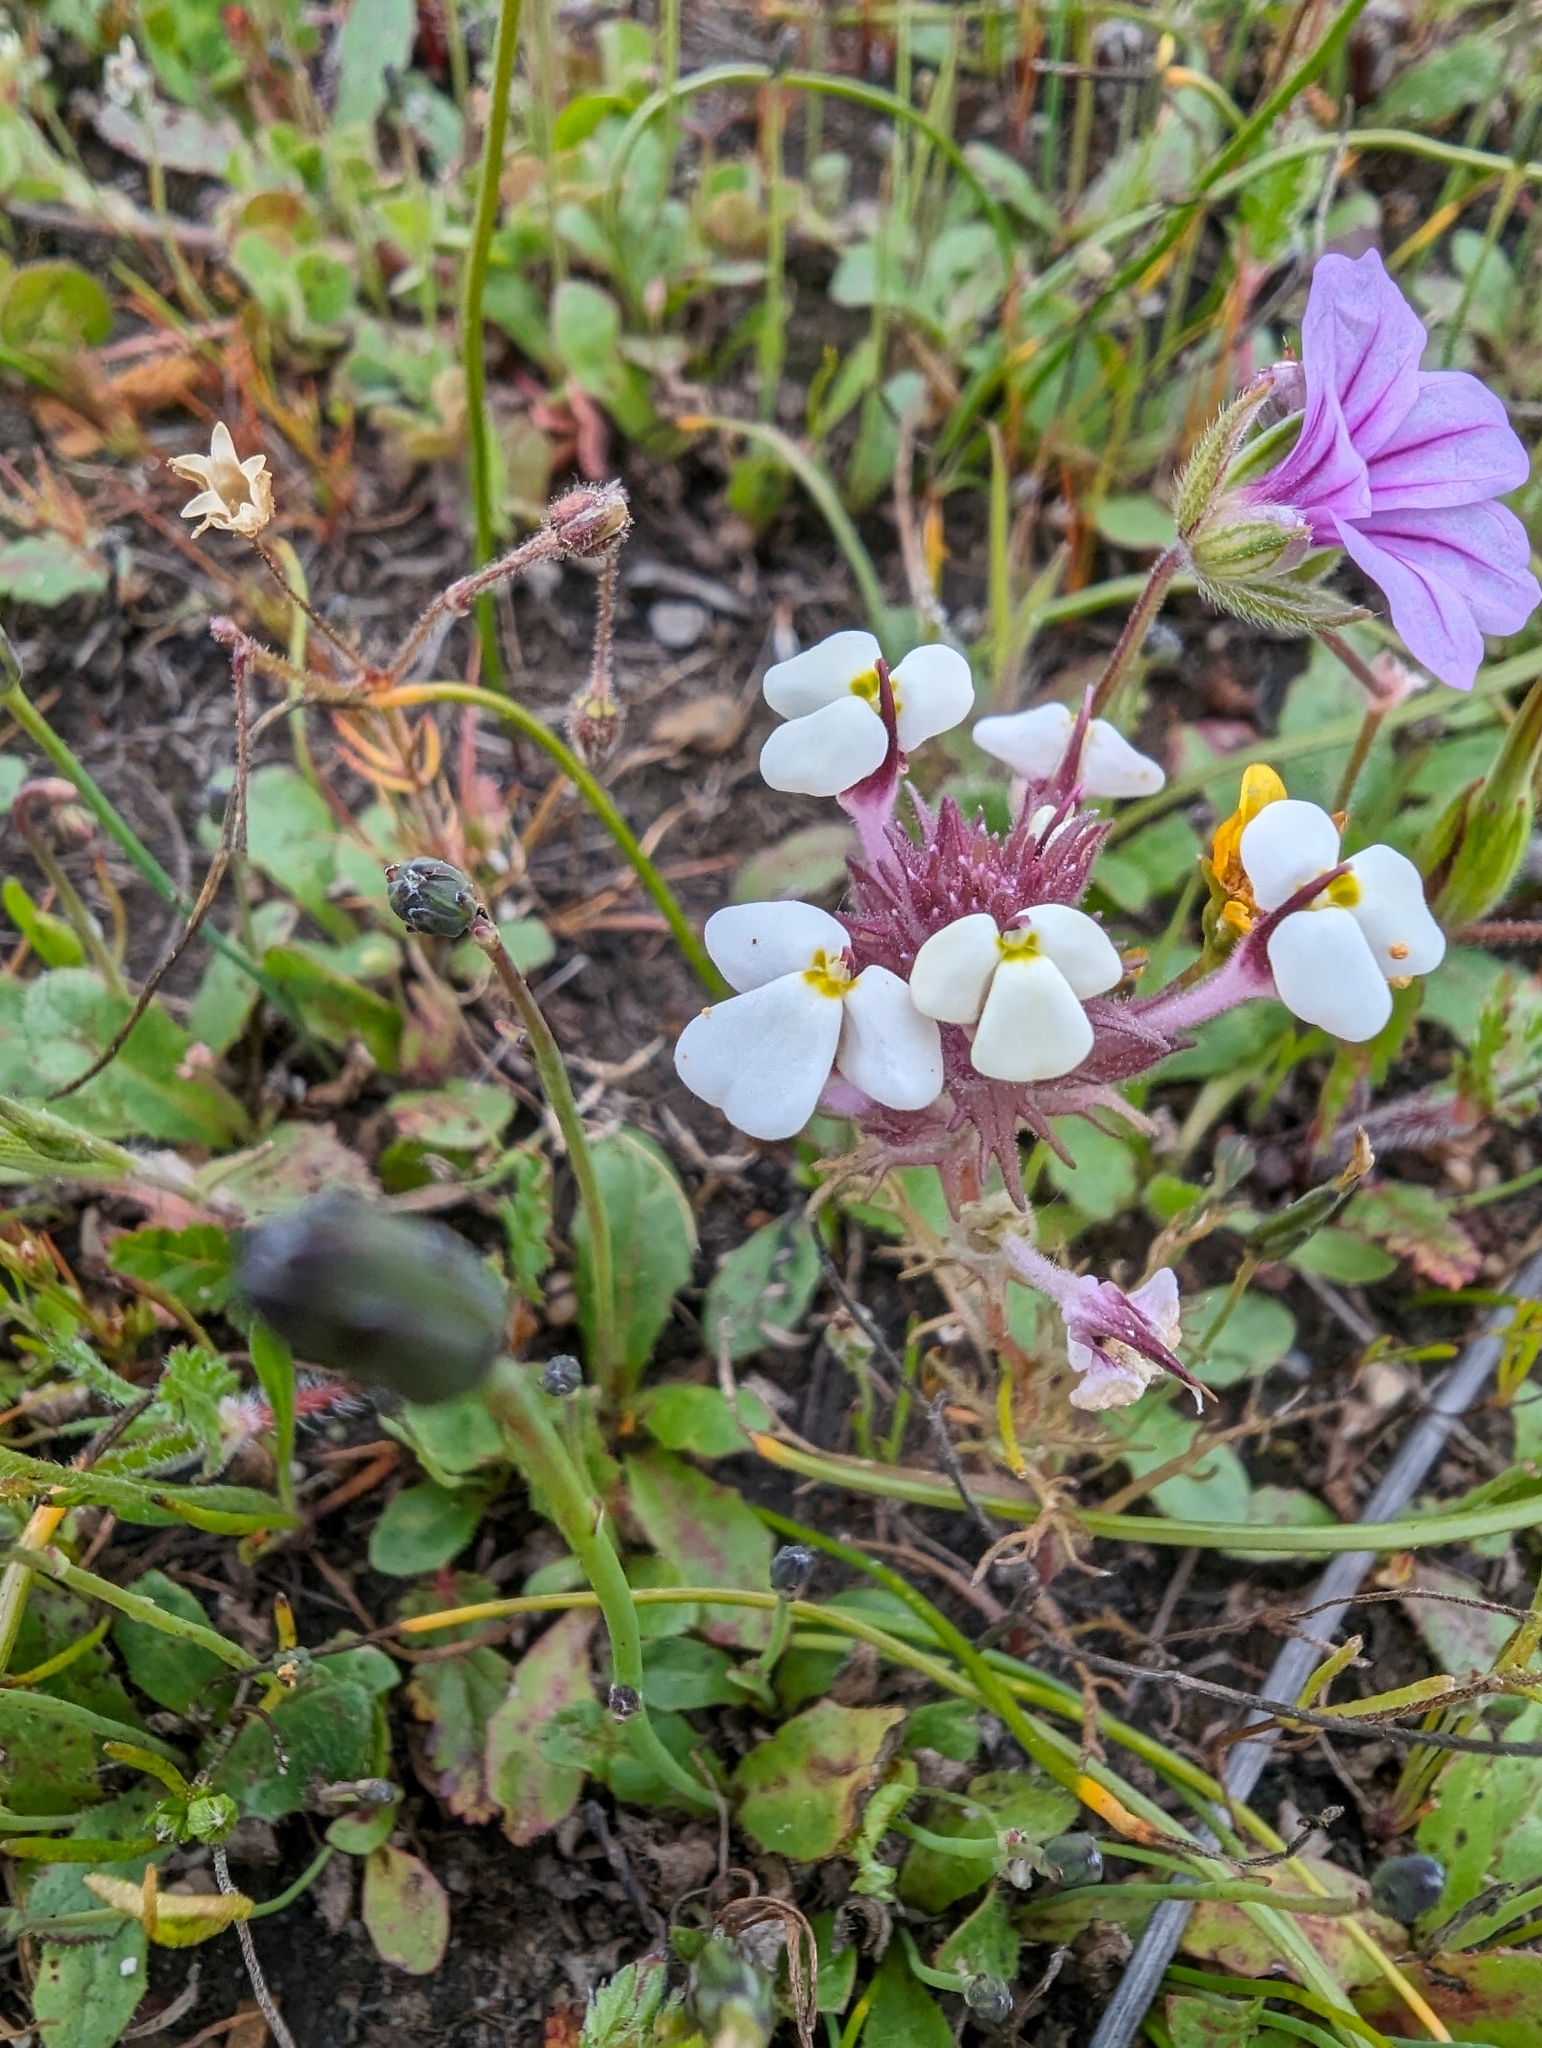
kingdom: Plantae
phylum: Tracheophyta
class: Magnoliopsida
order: Lamiales
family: Orobanchaceae
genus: Triphysaria
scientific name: Triphysaria eriantha
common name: Johnny-tuck
